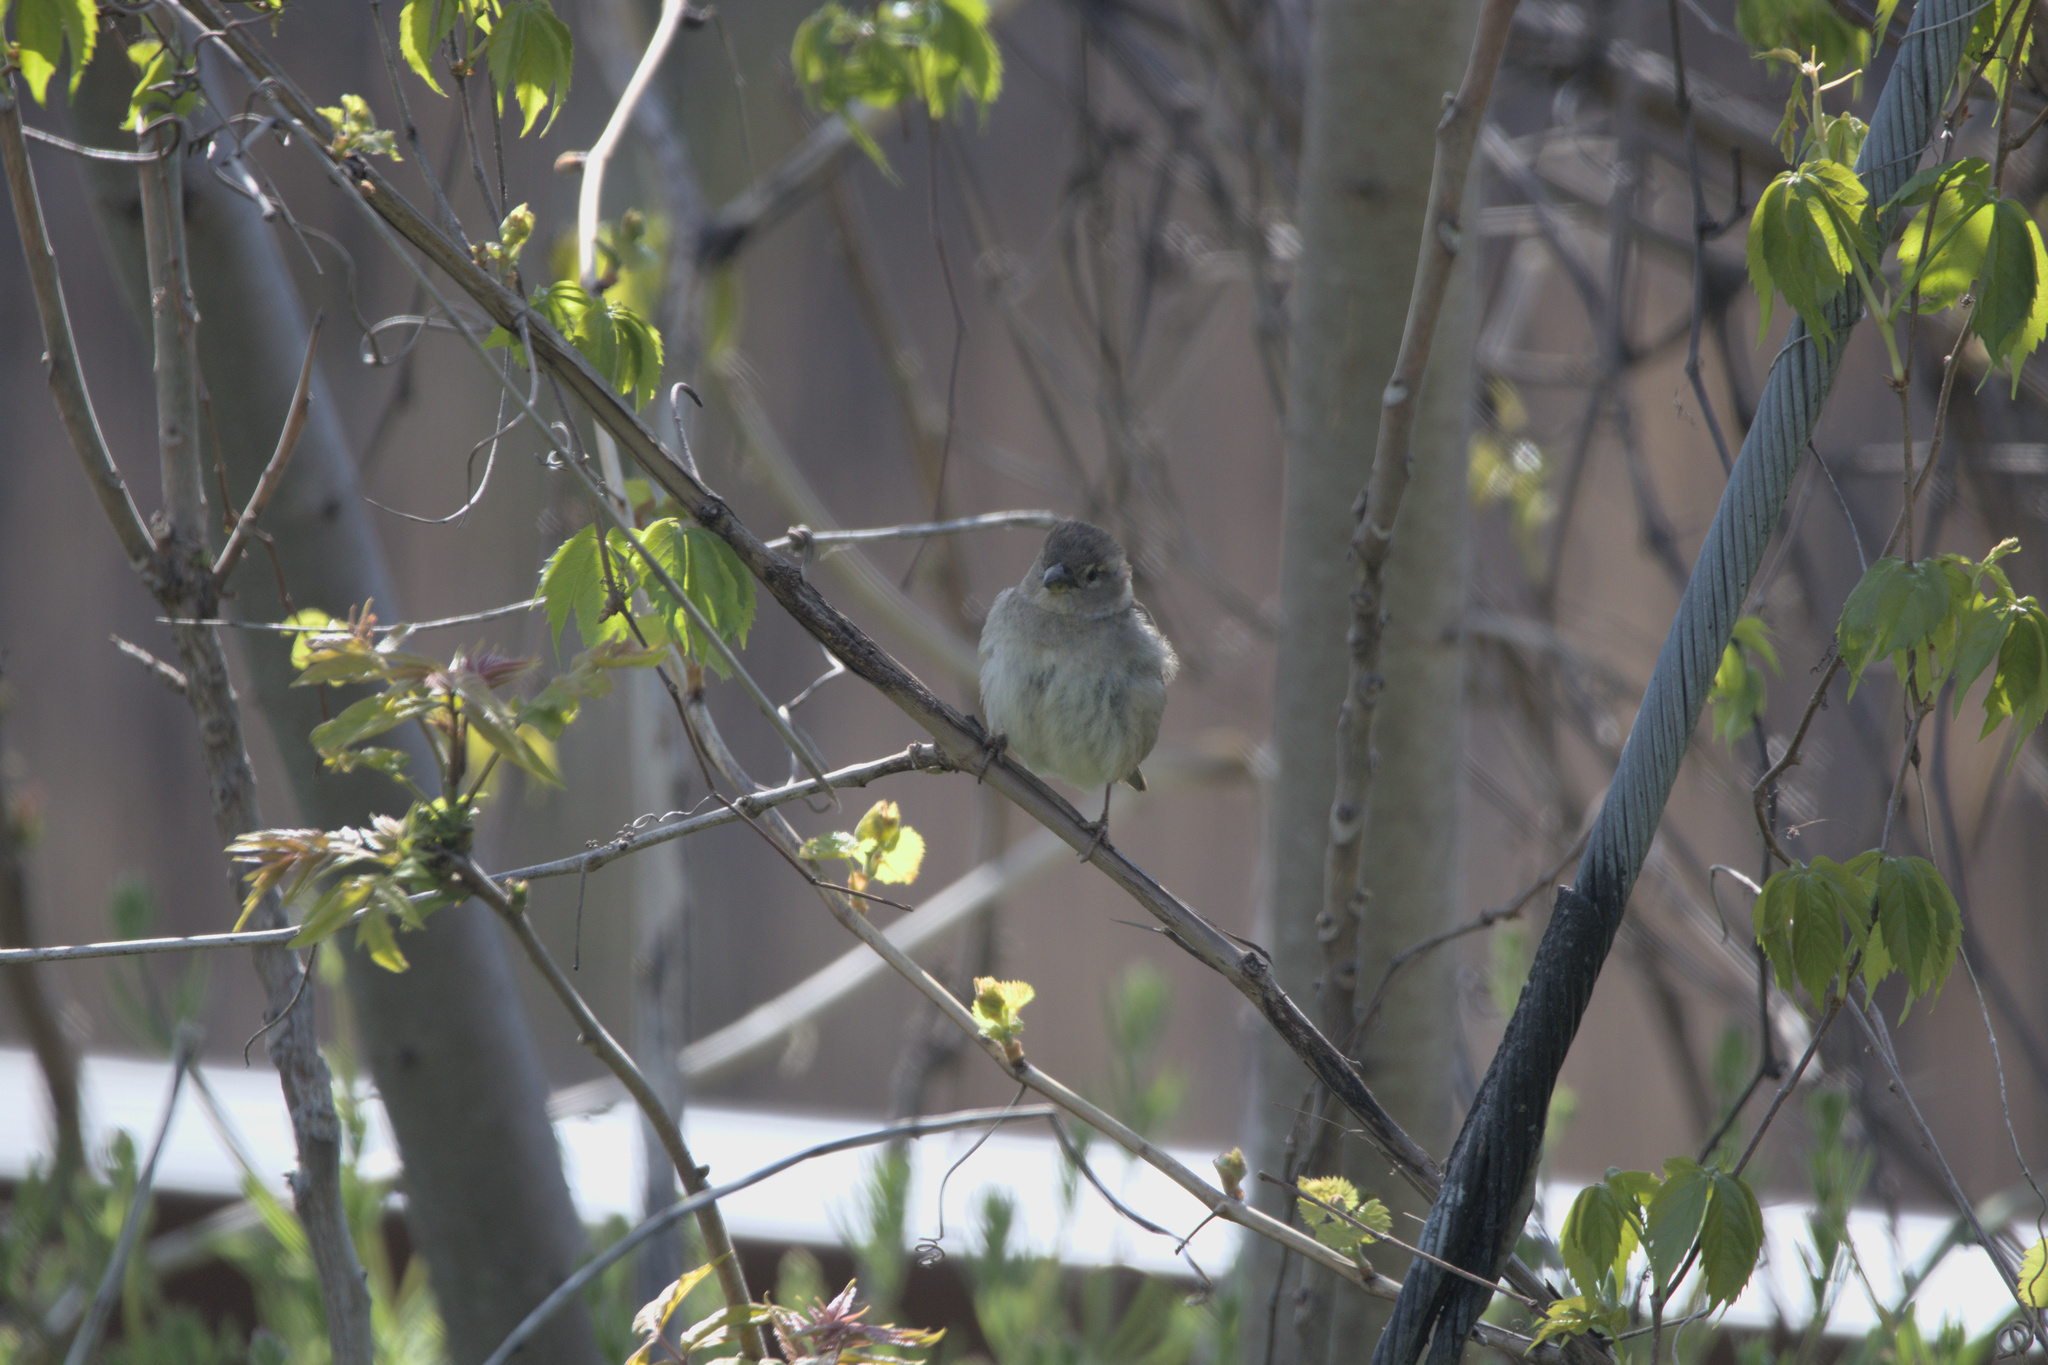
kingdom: Animalia
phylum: Chordata
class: Aves
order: Passeriformes
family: Passeridae
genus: Passer
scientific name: Passer domesticus
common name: House sparrow
